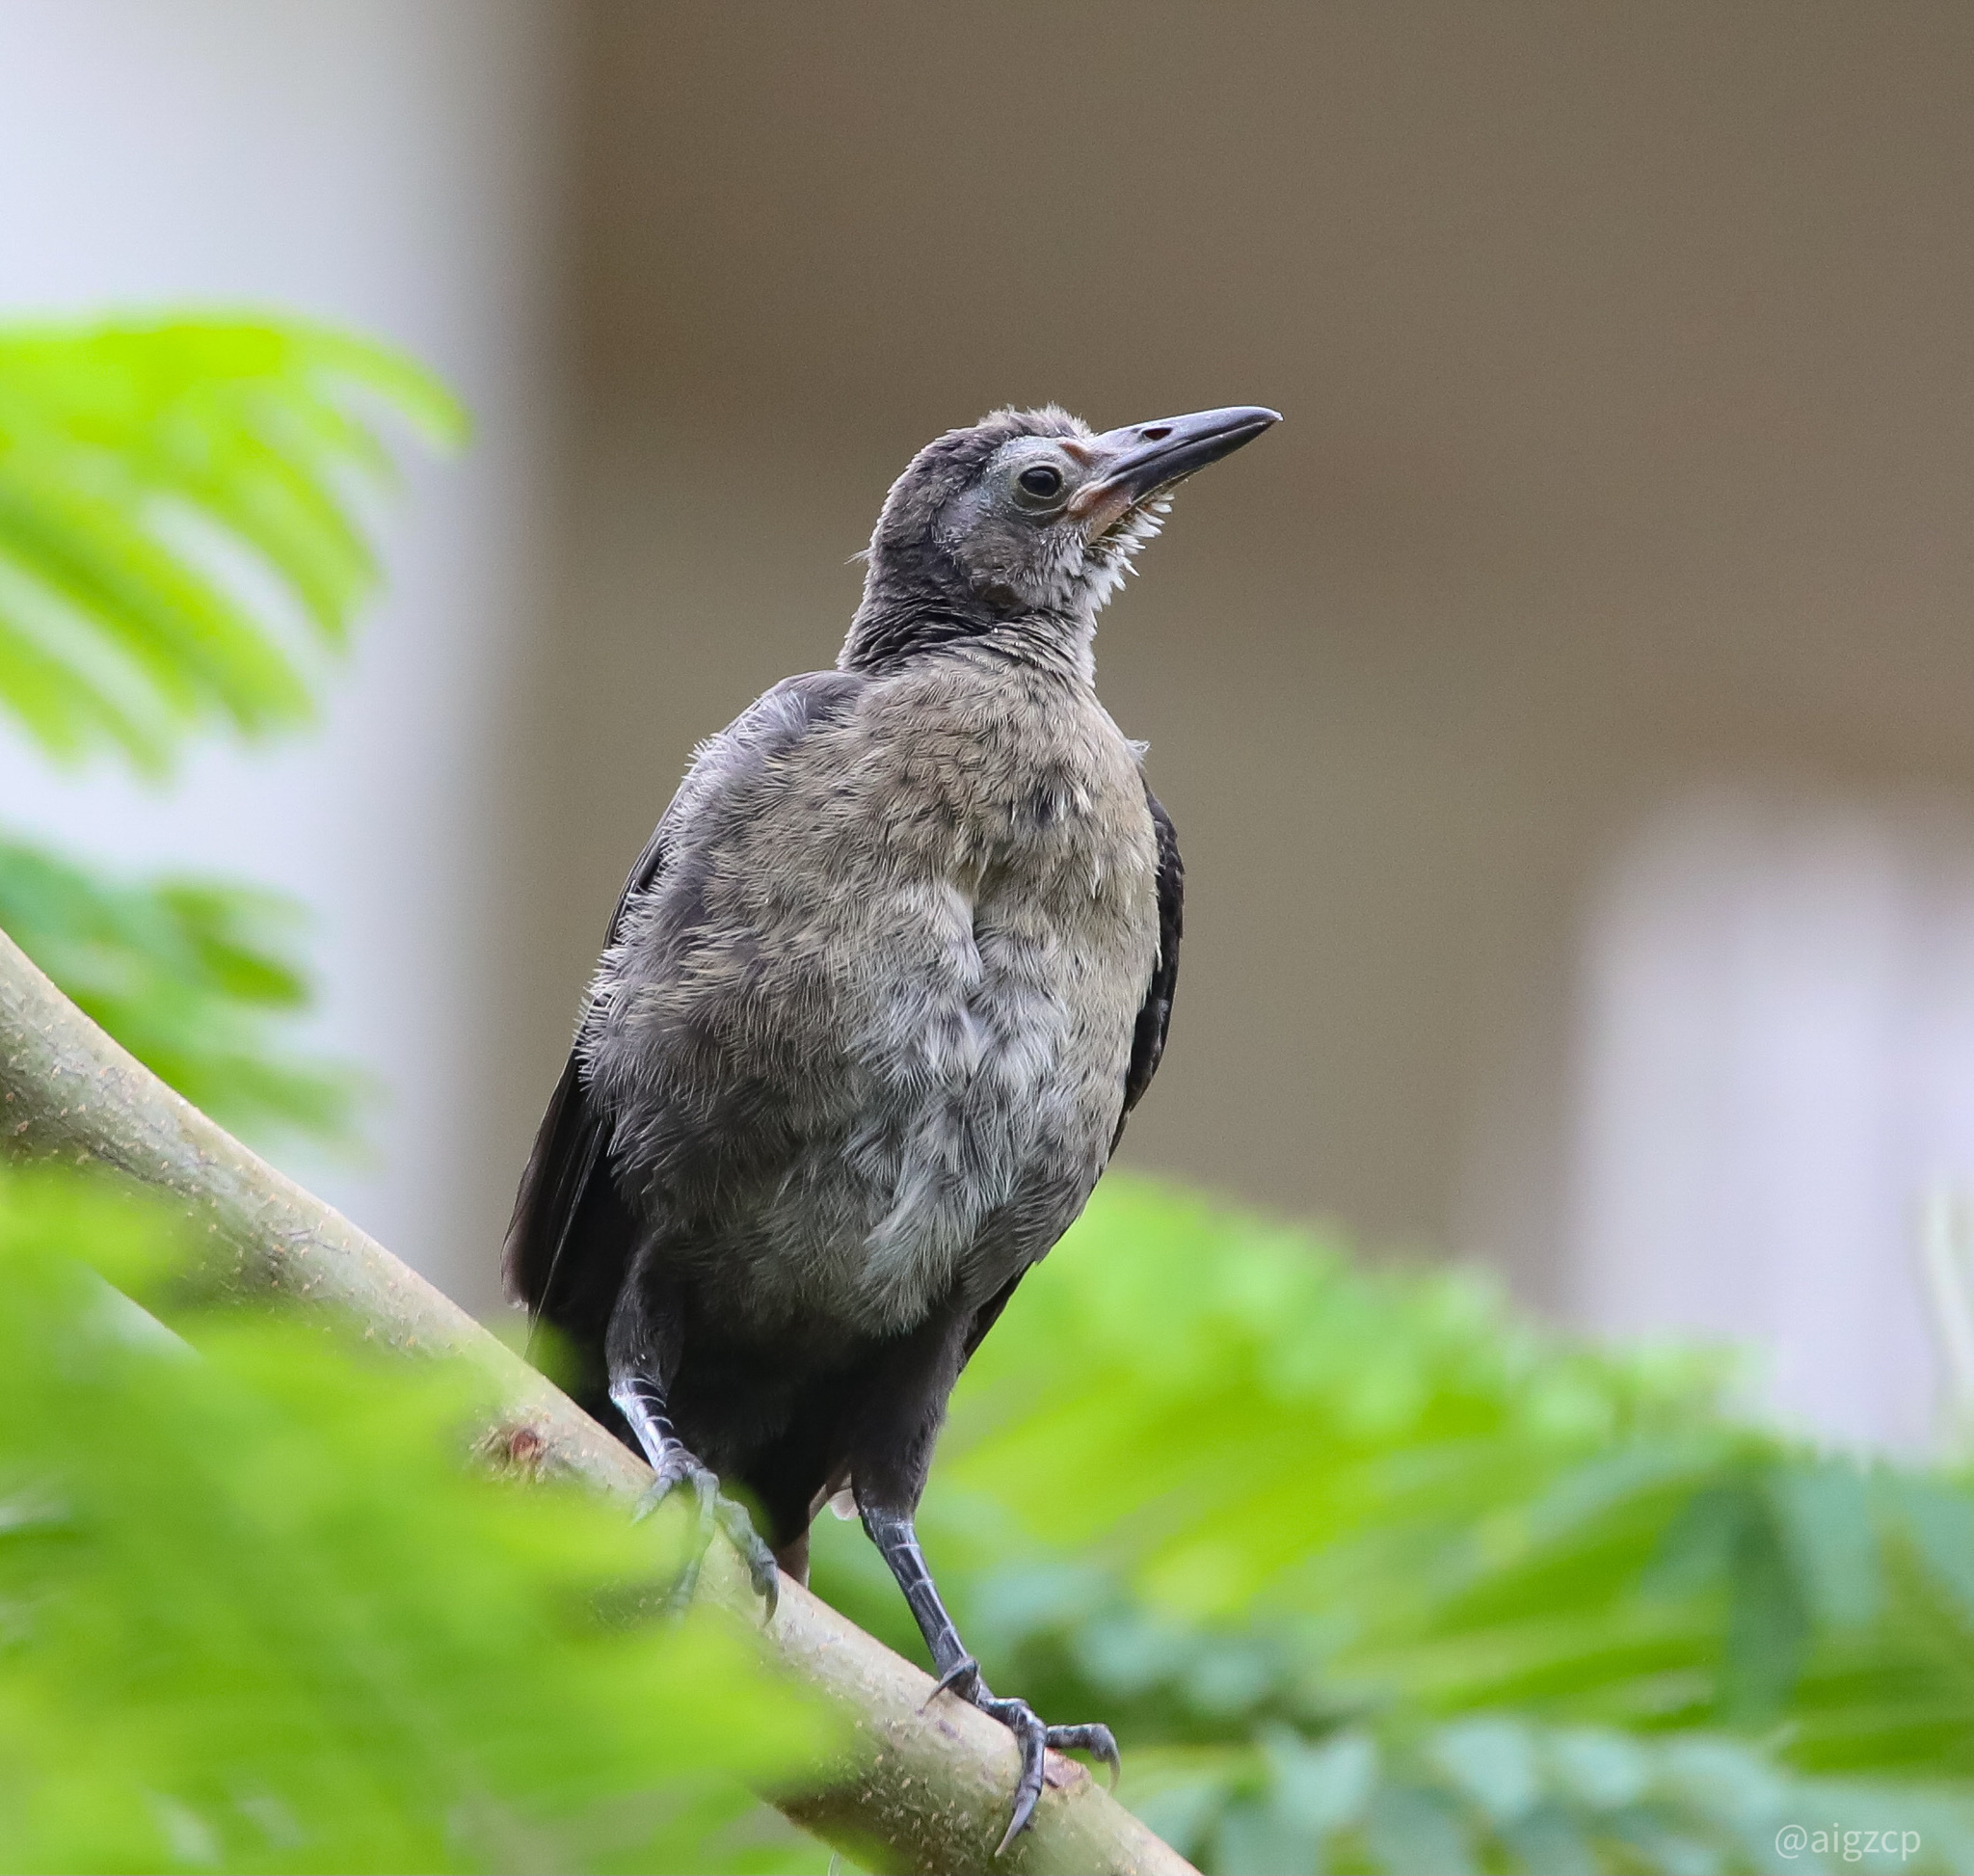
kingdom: Animalia
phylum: Chordata
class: Aves
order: Passeriformes
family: Icteridae
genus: Quiscalus
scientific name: Quiscalus mexicanus
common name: Great-tailed grackle
